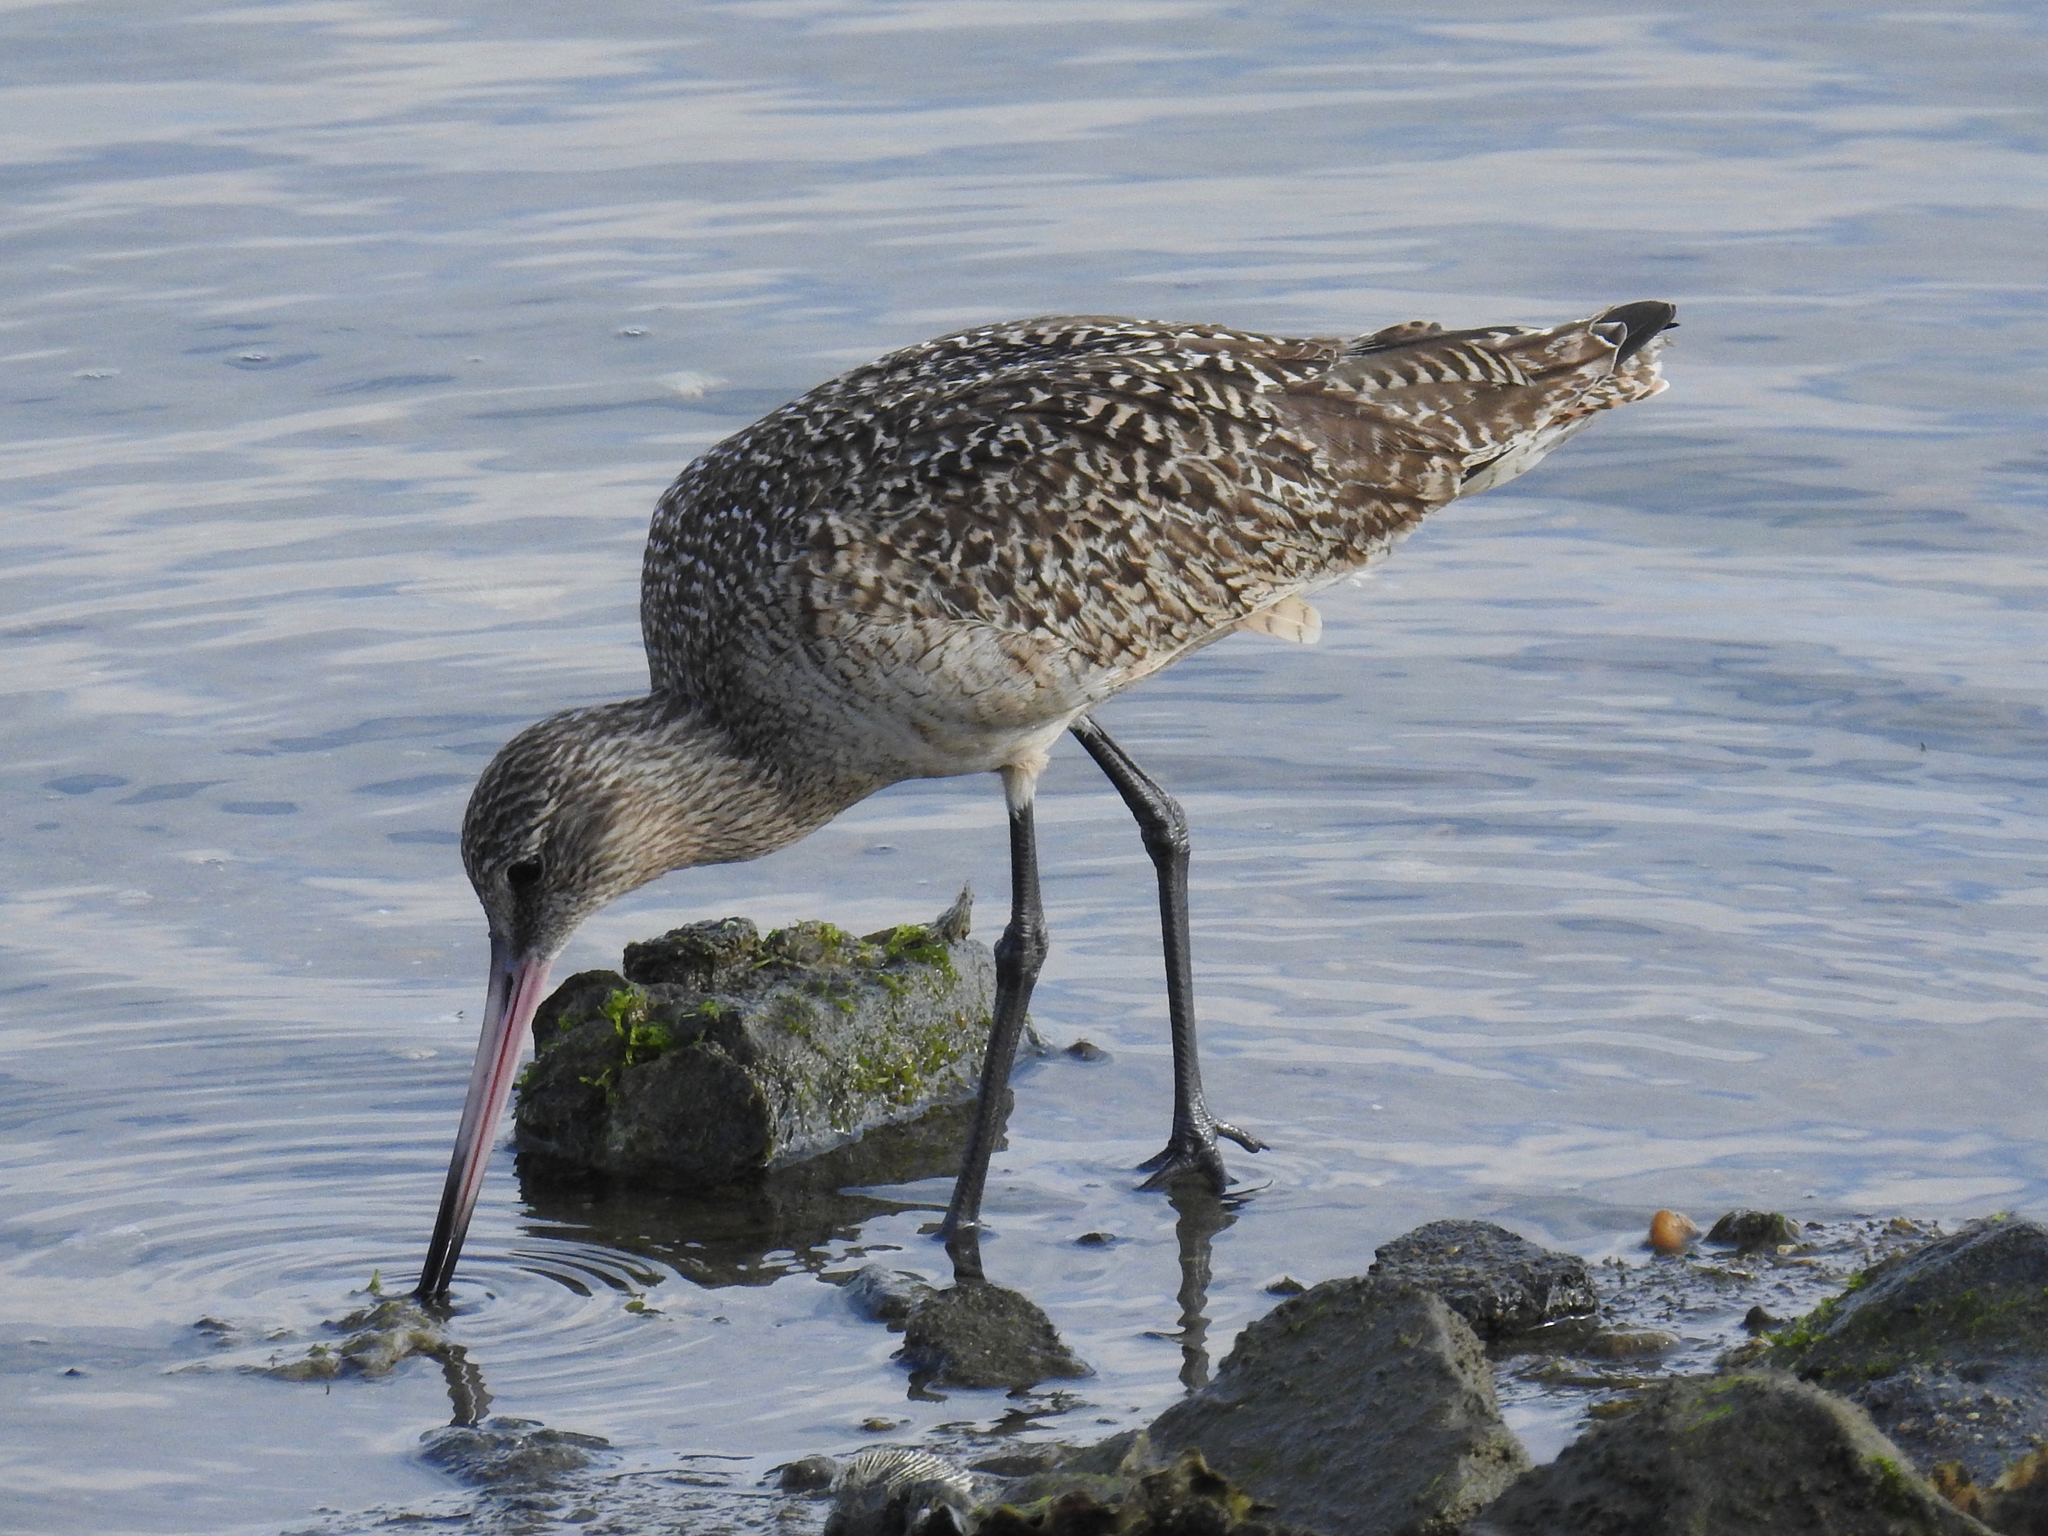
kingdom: Animalia
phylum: Chordata
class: Aves
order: Charadriiformes
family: Scolopacidae
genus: Limosa
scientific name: Limosa fedoa
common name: Marbled godwit
